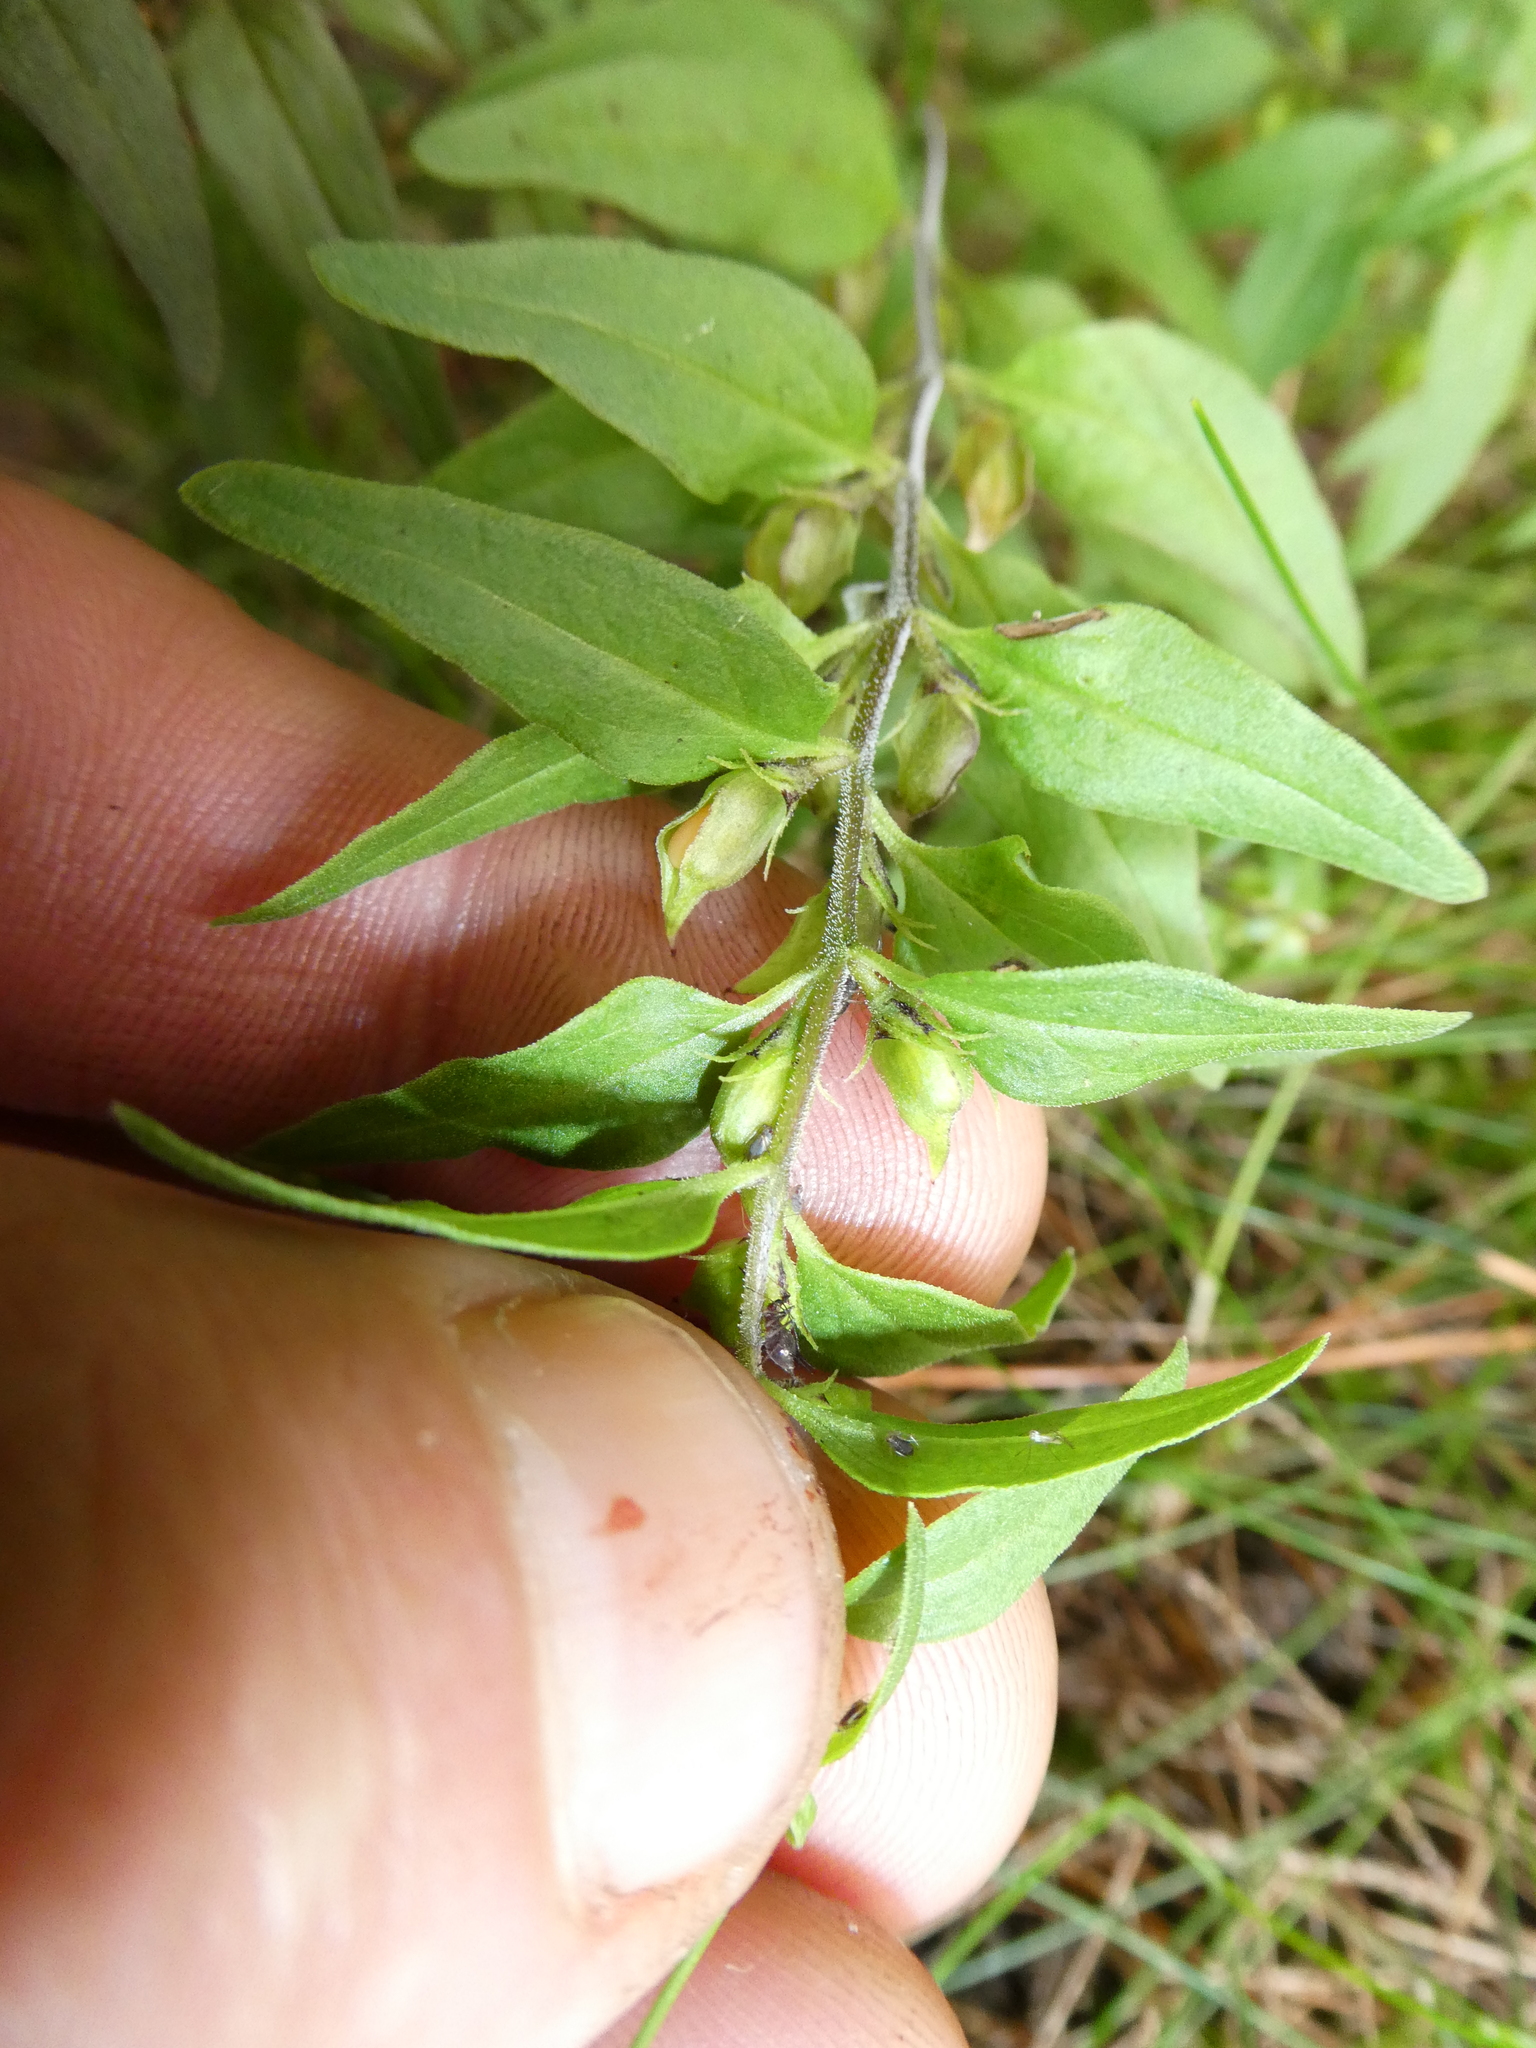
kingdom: Plantae
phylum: Tracheophyta
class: Magnoliopsida
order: Lamiales
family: Orobanchaceae
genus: Melampyrum
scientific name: Melampyrum lineare
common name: American cow-wheat
